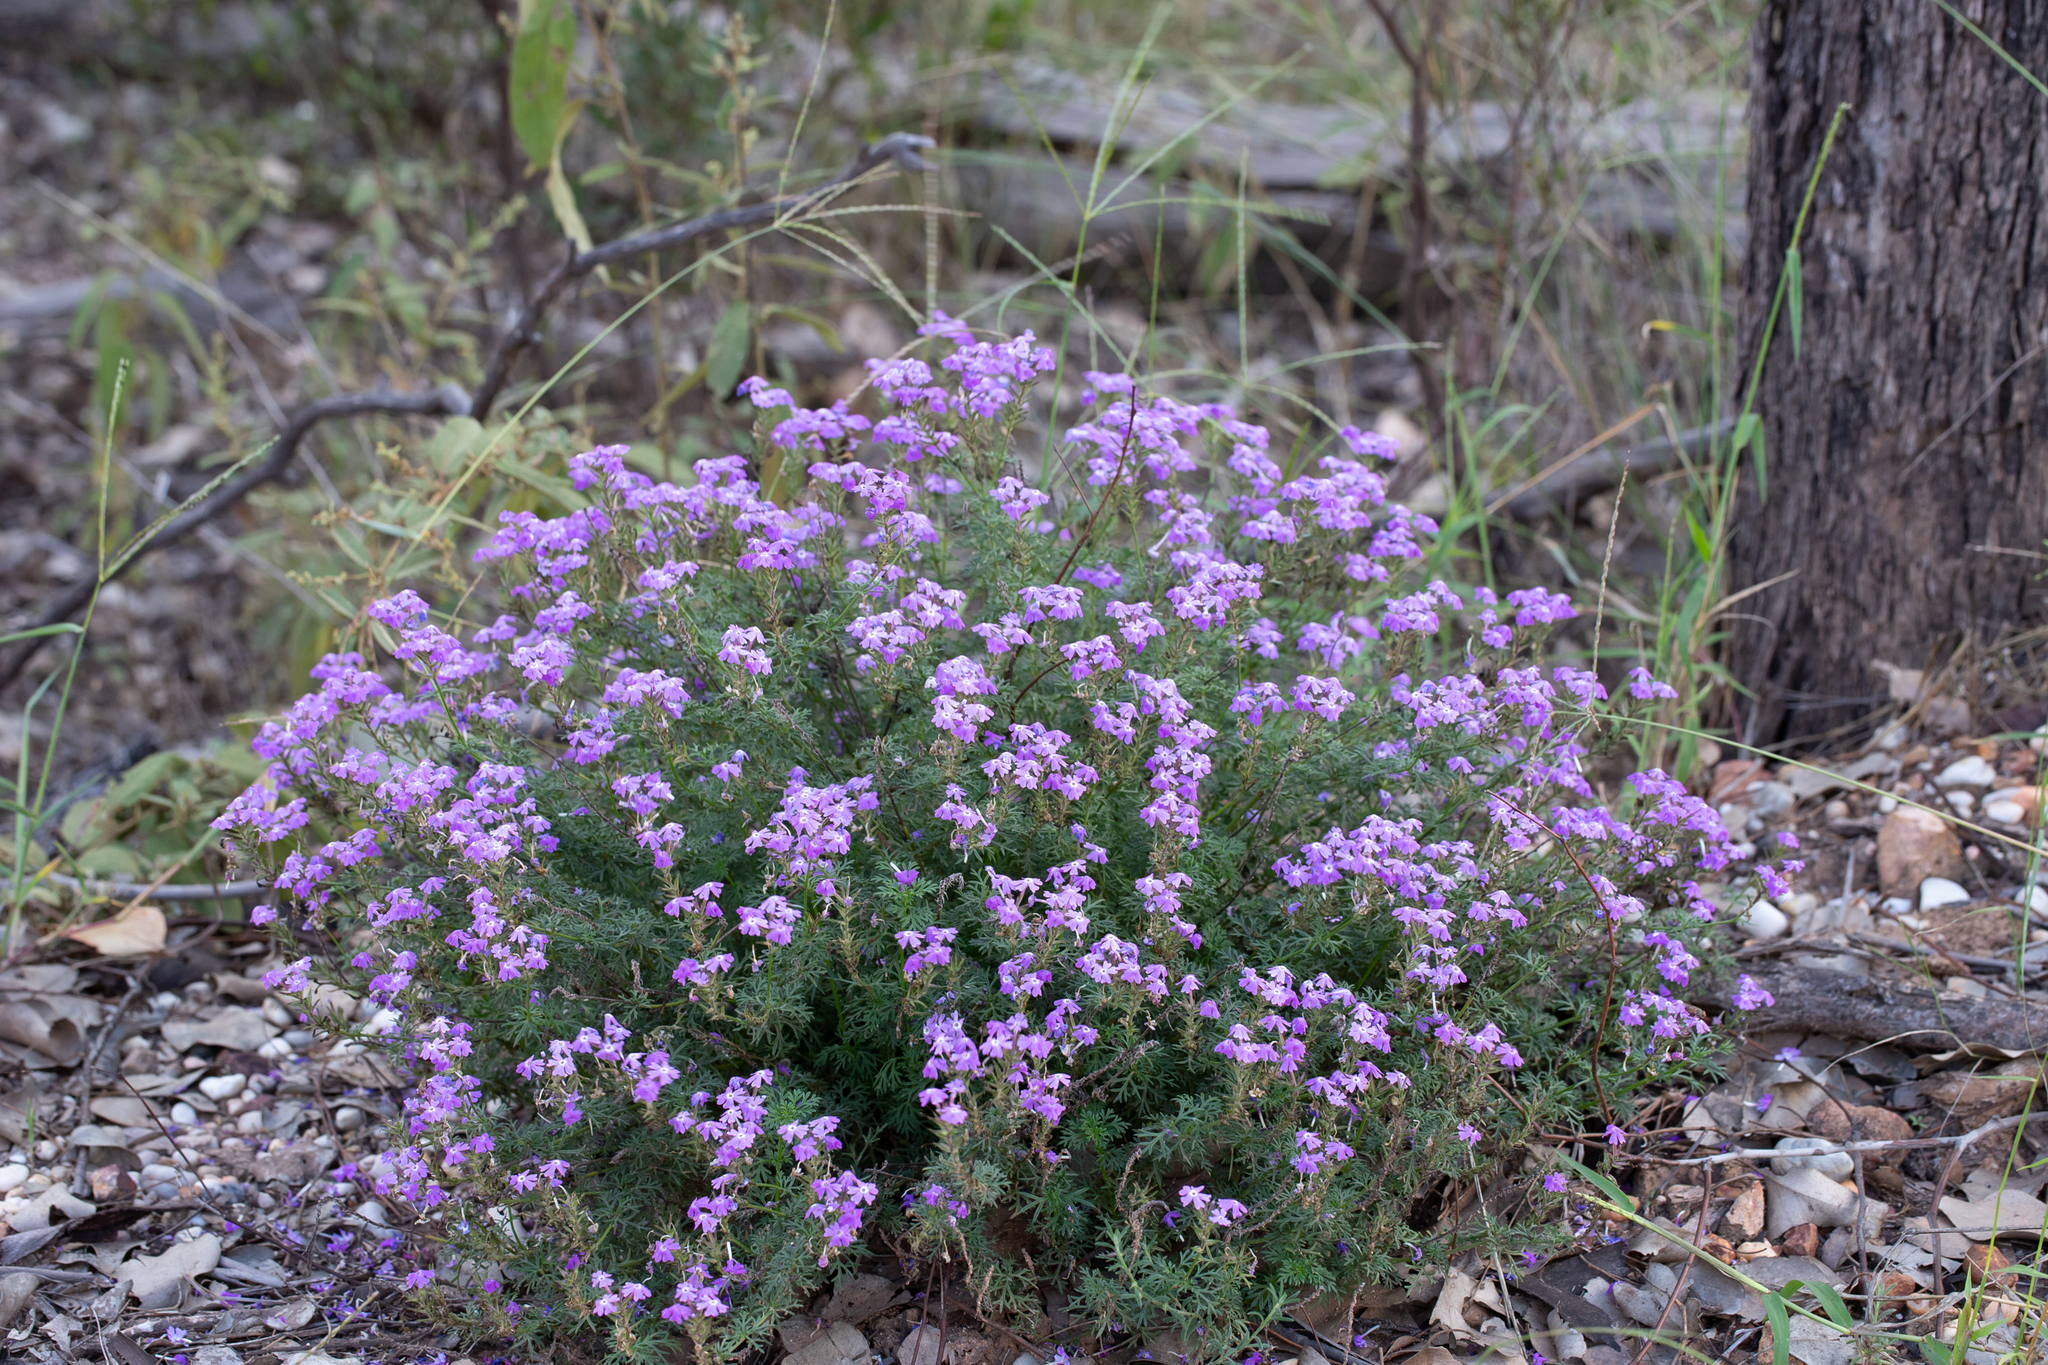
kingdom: Plantae
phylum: Tracheophyta
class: Magnoliopsida
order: Lamiales
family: Verbenaceae
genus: Verbena
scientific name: Verbena aristigera
